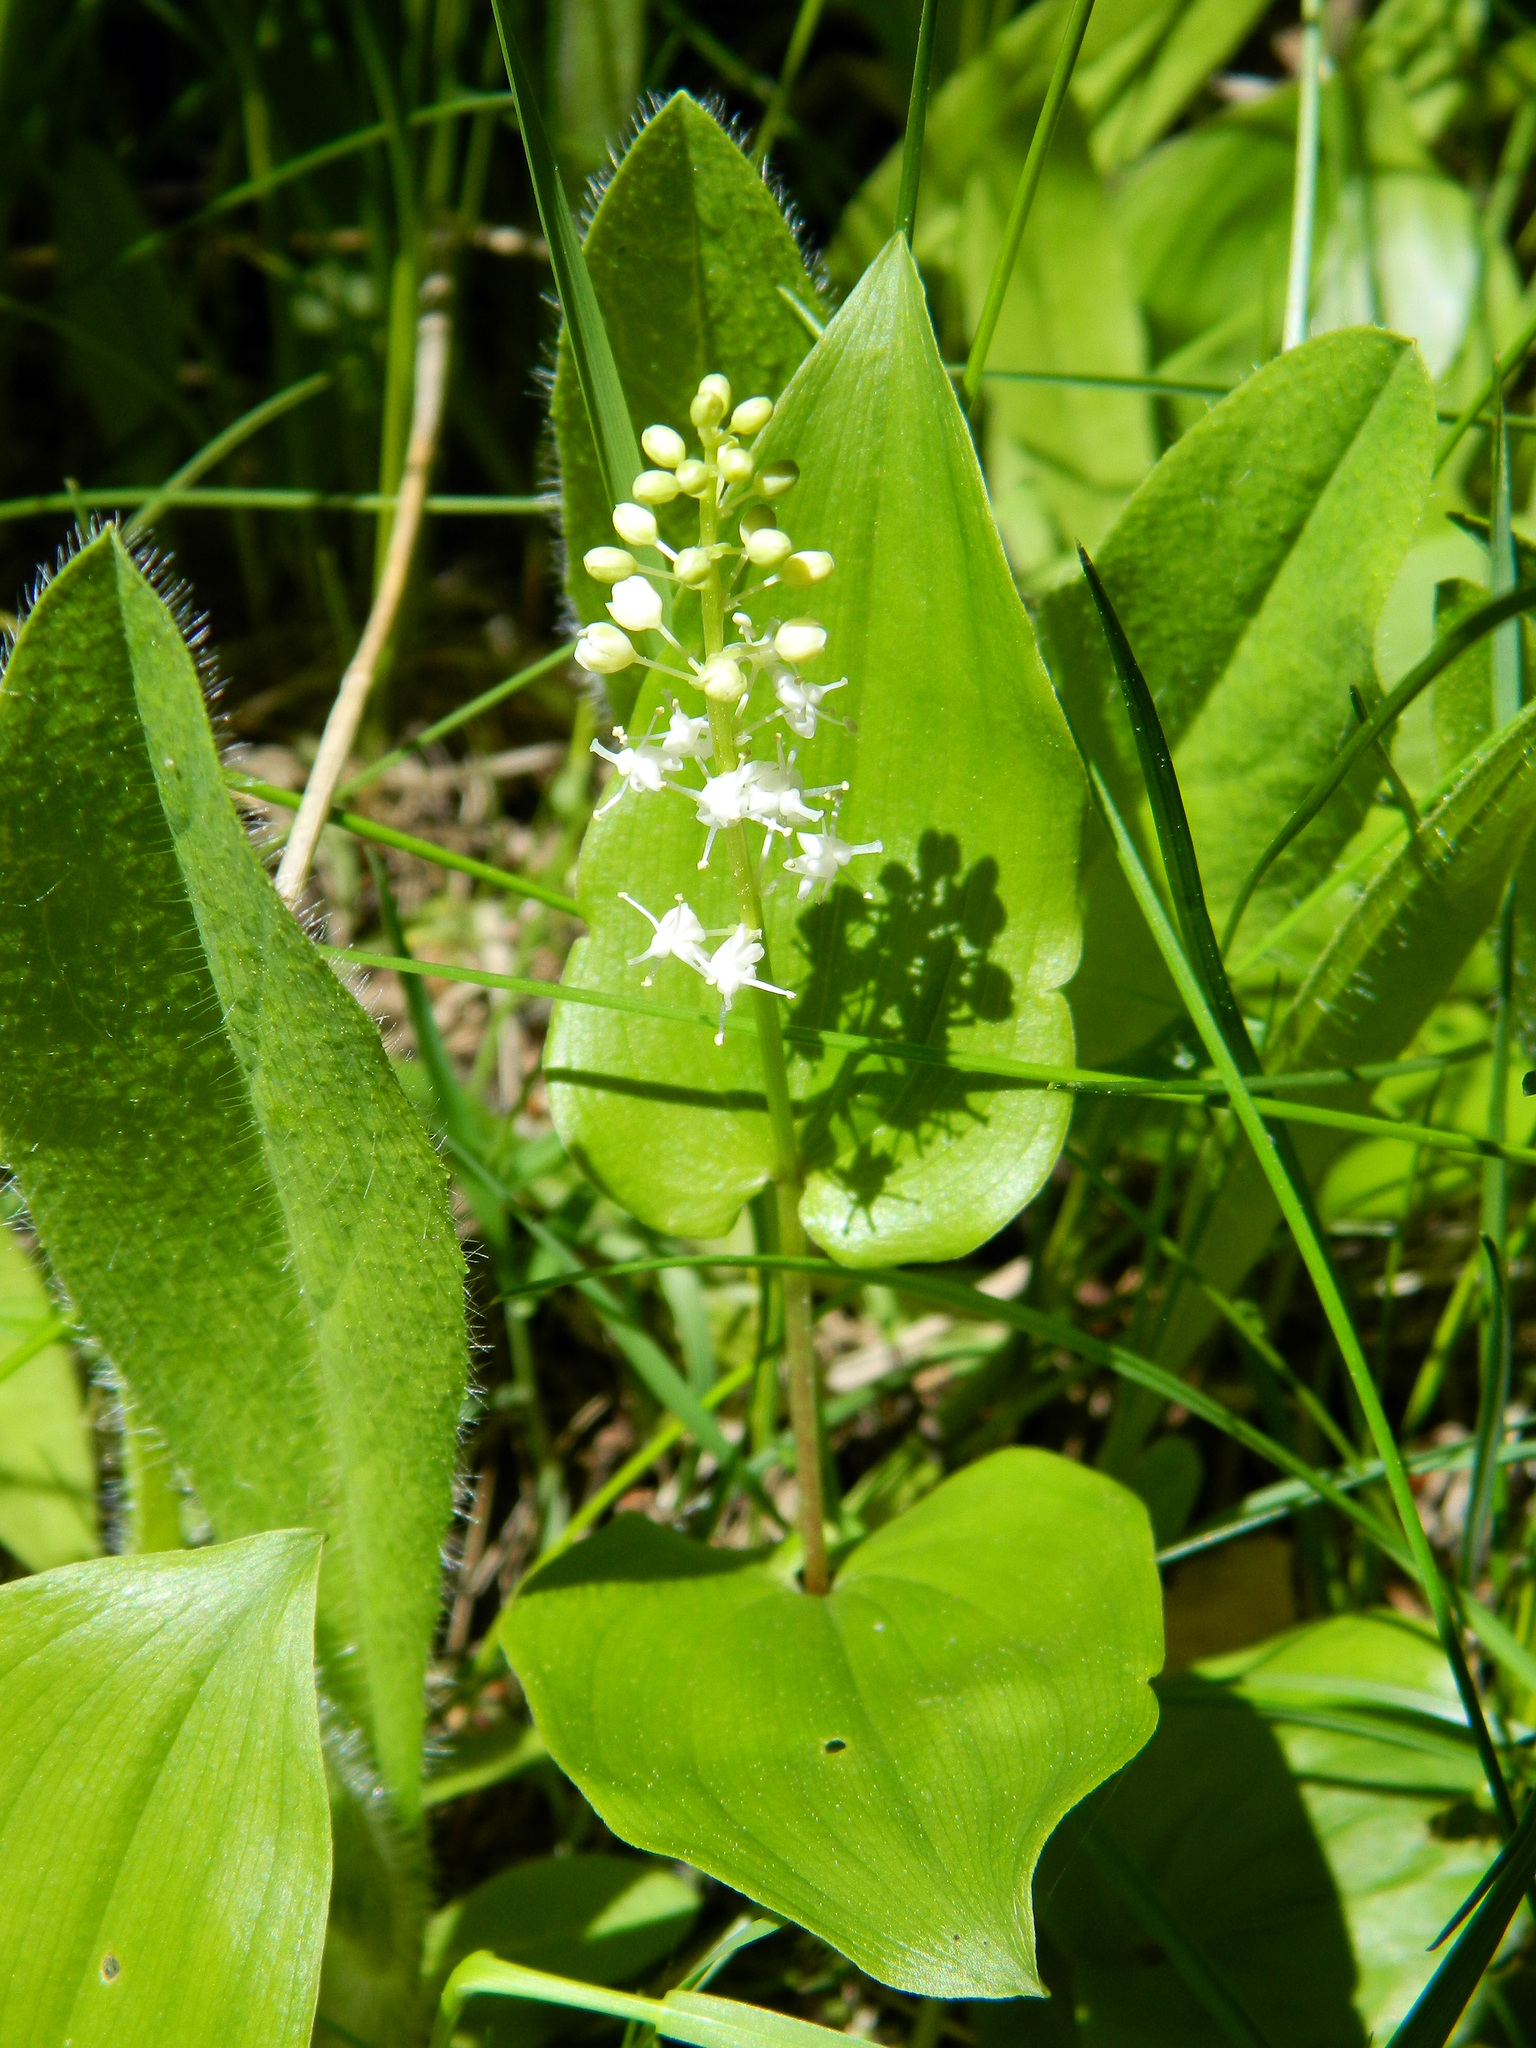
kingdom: Plantae
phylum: Tracheophyta
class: Liliopsida
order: Asparagales
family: Asparagaceae
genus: Maianthemum
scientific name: Maianthemum canadense
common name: False lily-of-the-valley
